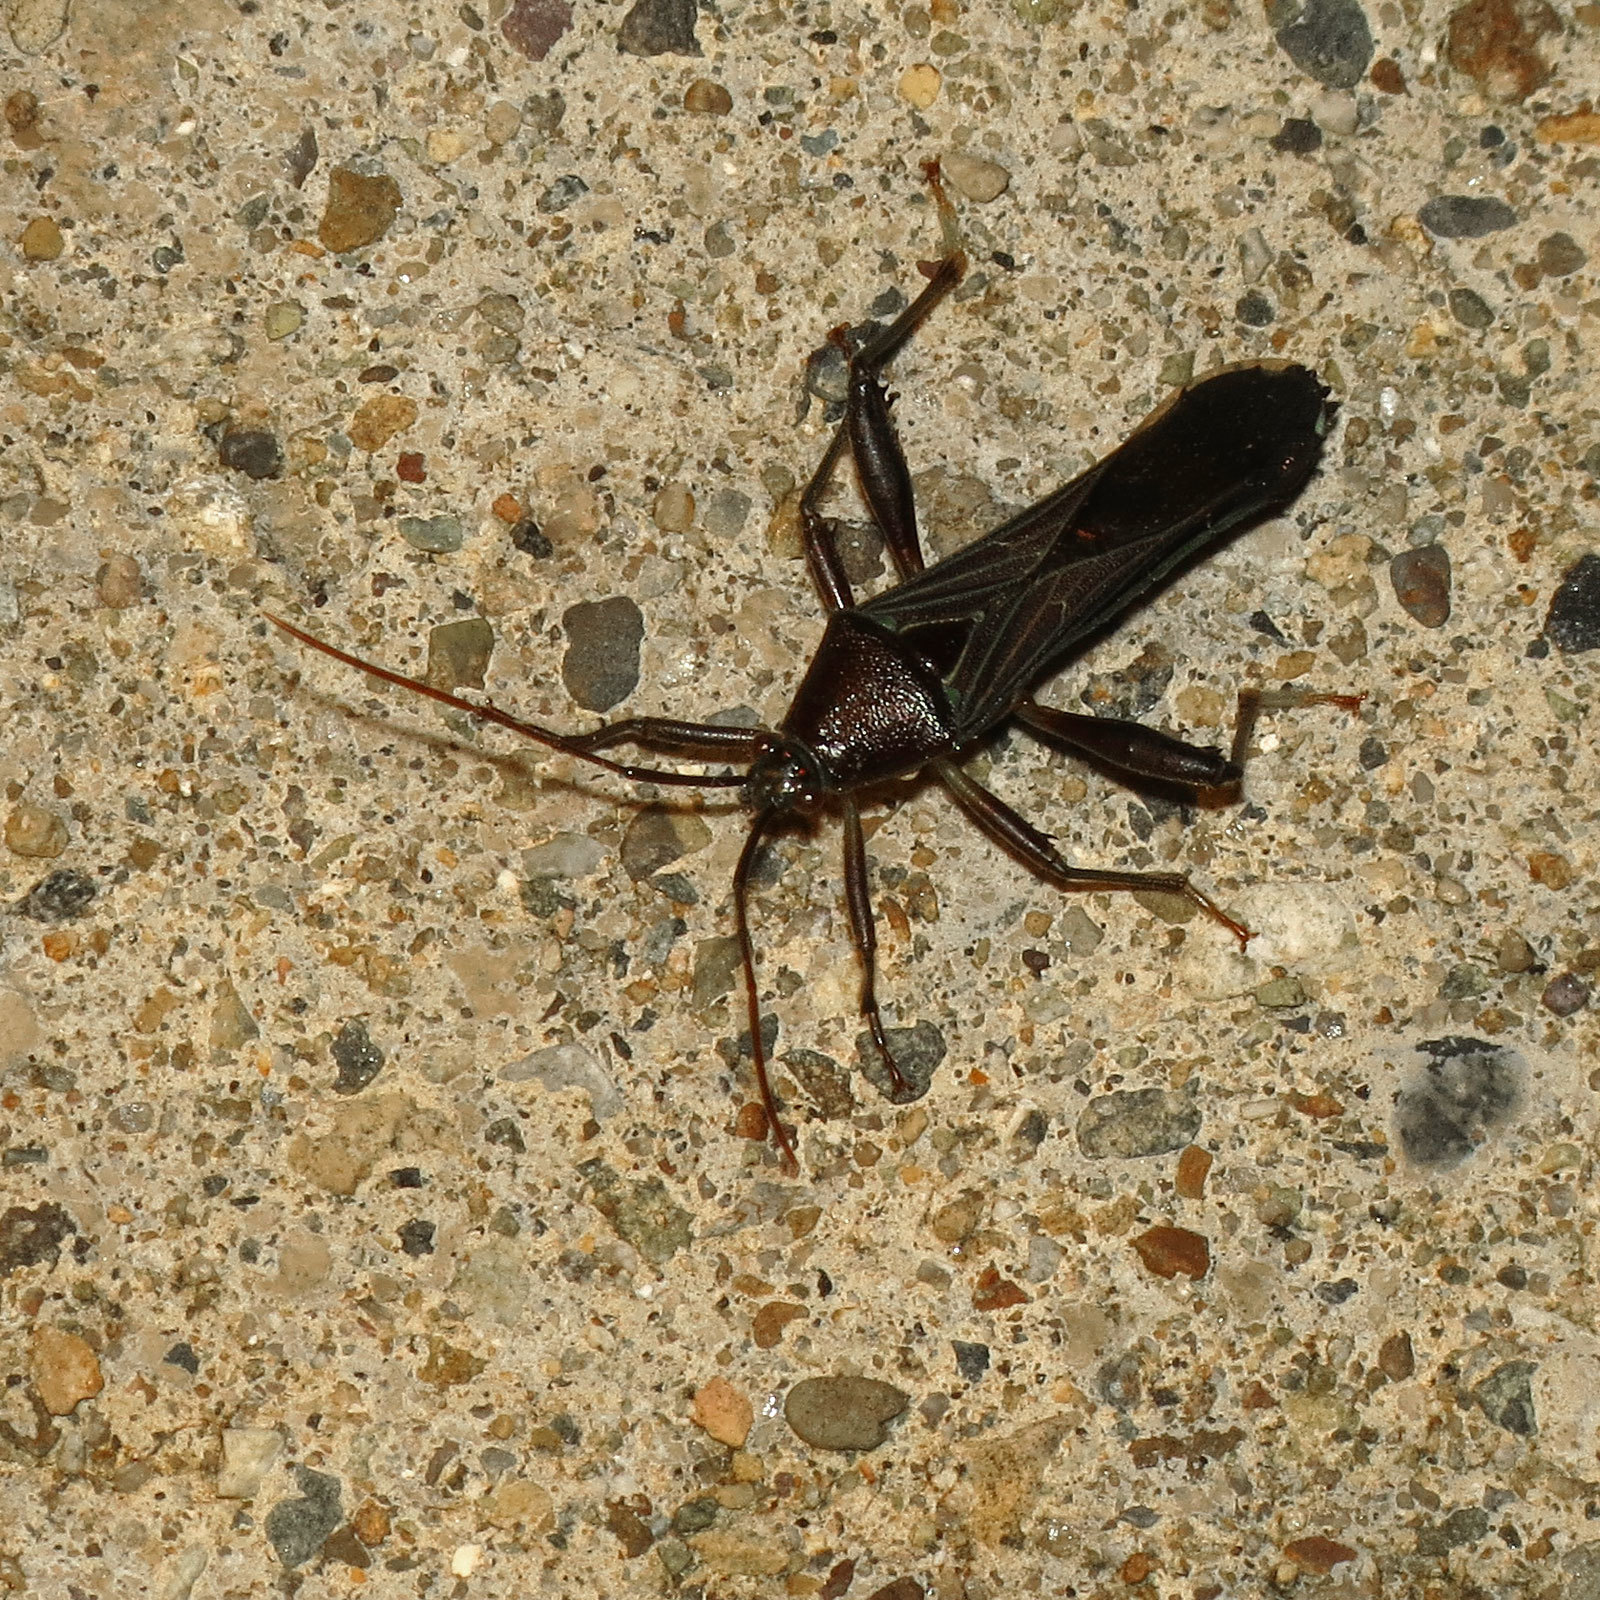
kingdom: Animalia
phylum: Arthropoda
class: Insecta
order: Hemiptera
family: Coreidae
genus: Grammopoecilus
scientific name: Grammopoecilus angustatus
